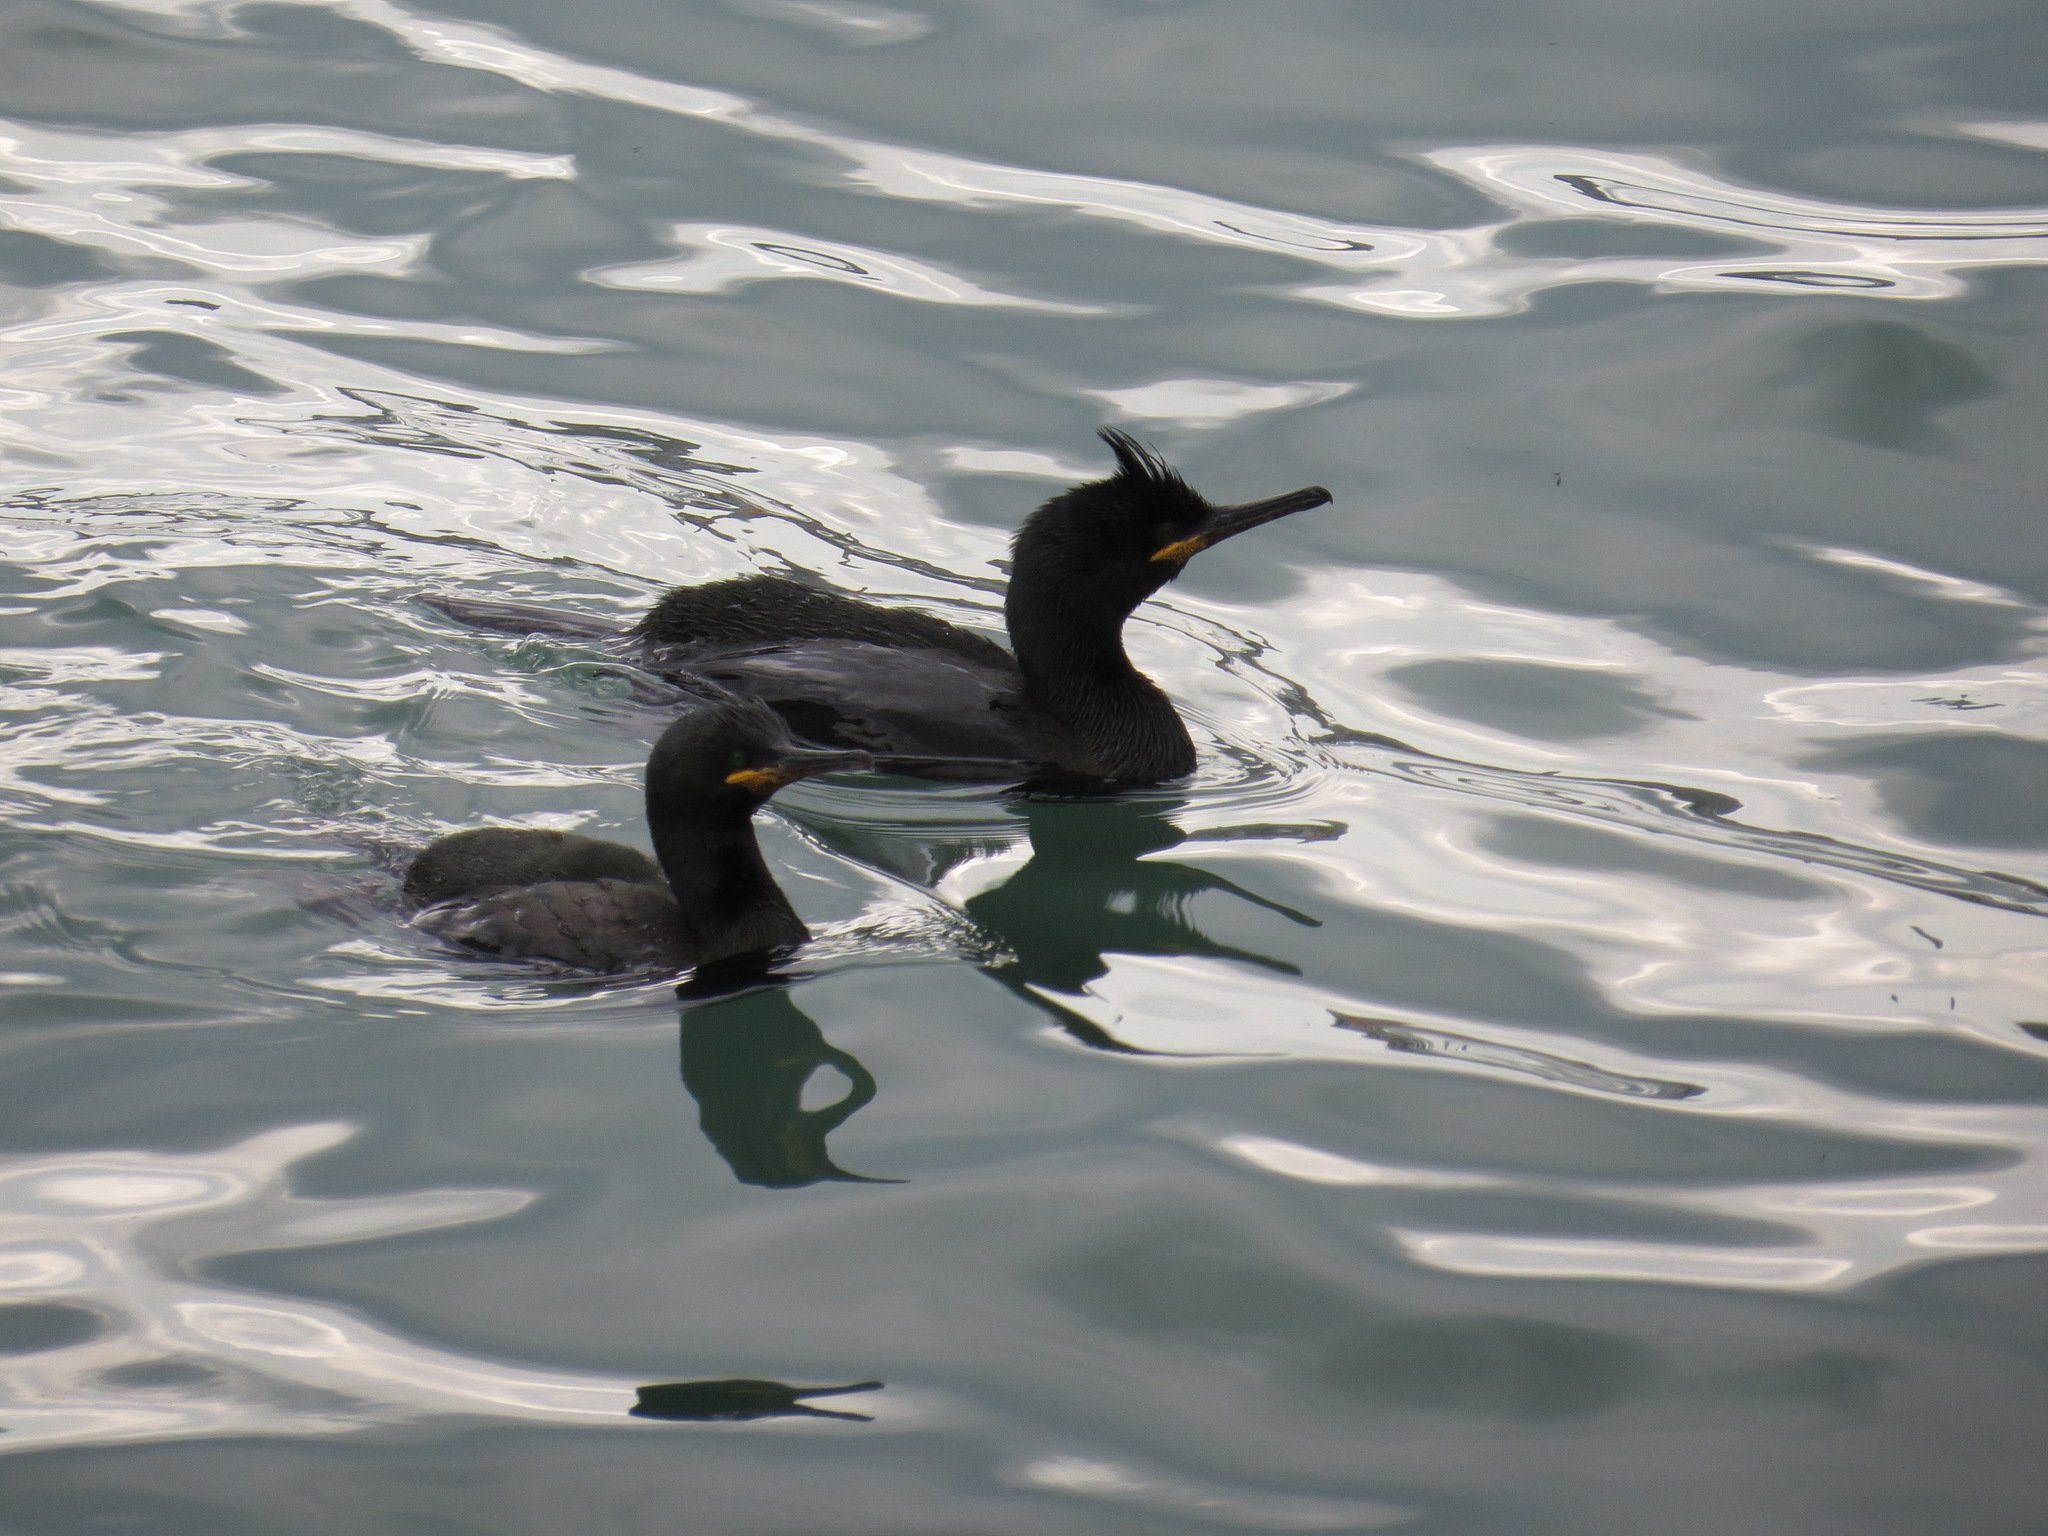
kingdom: Animalia
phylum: Chordata
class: Aves
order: Suliformes
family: Phalacrocoracidae
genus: Phalacrocorax
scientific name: Phalacrocorax aristotelis
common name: European shag
